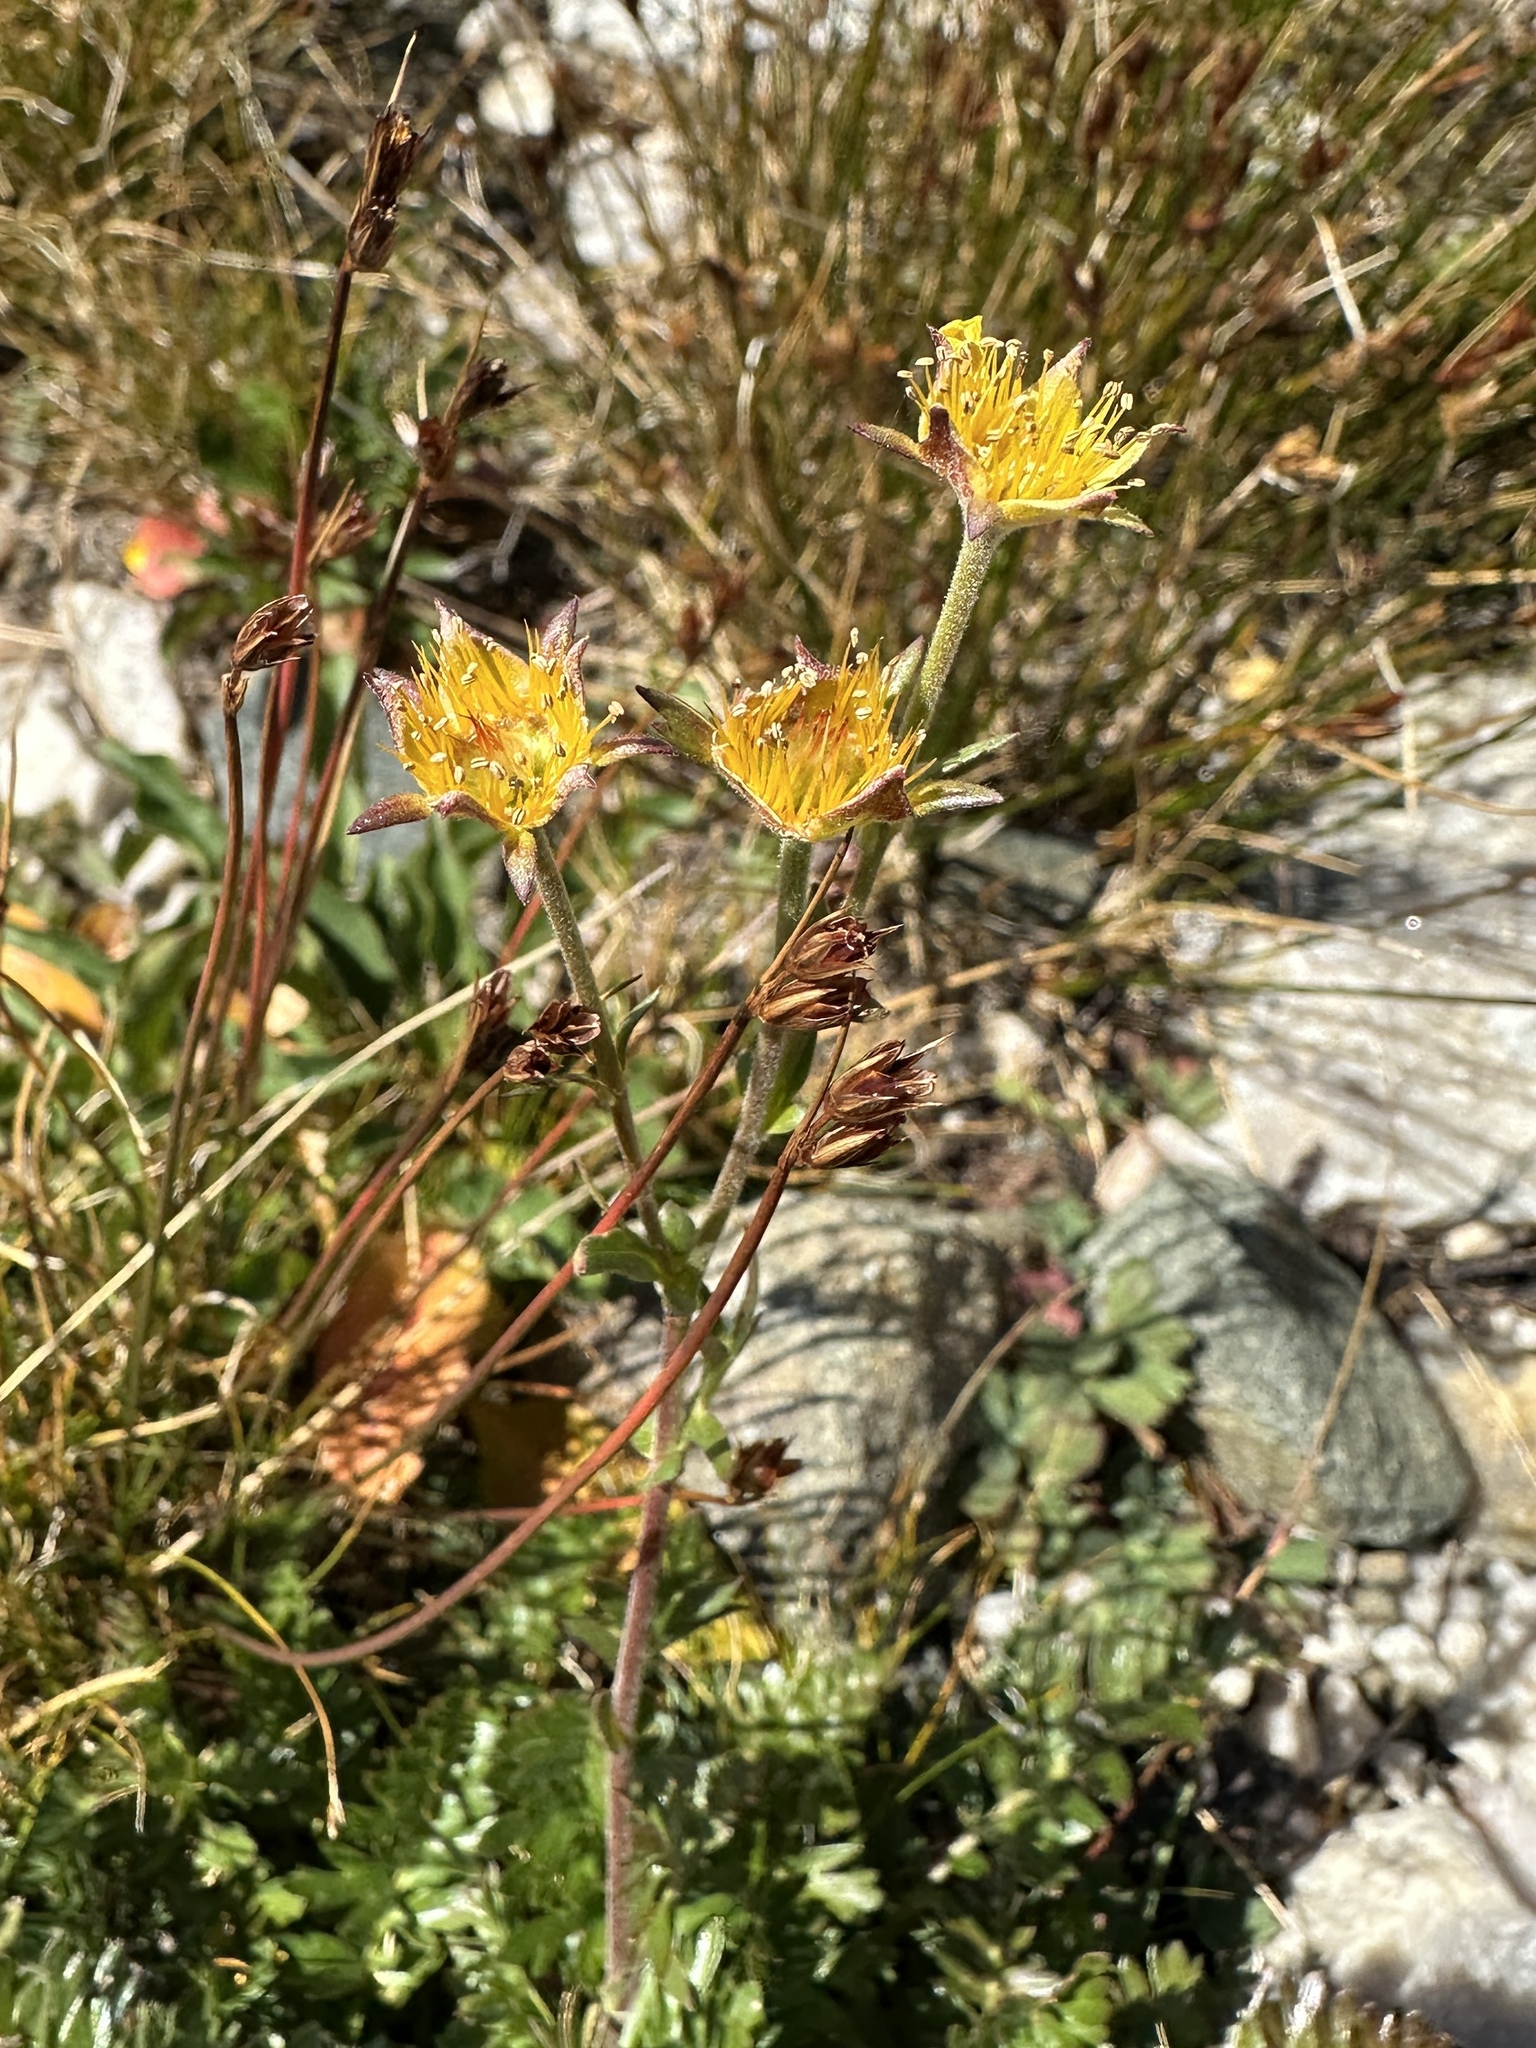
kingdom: Plantae
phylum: Tracheophyta
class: Magnoliopsida
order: Rosales
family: Rosaceae
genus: Geum
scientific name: Geum rossii
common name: Alpine avens
